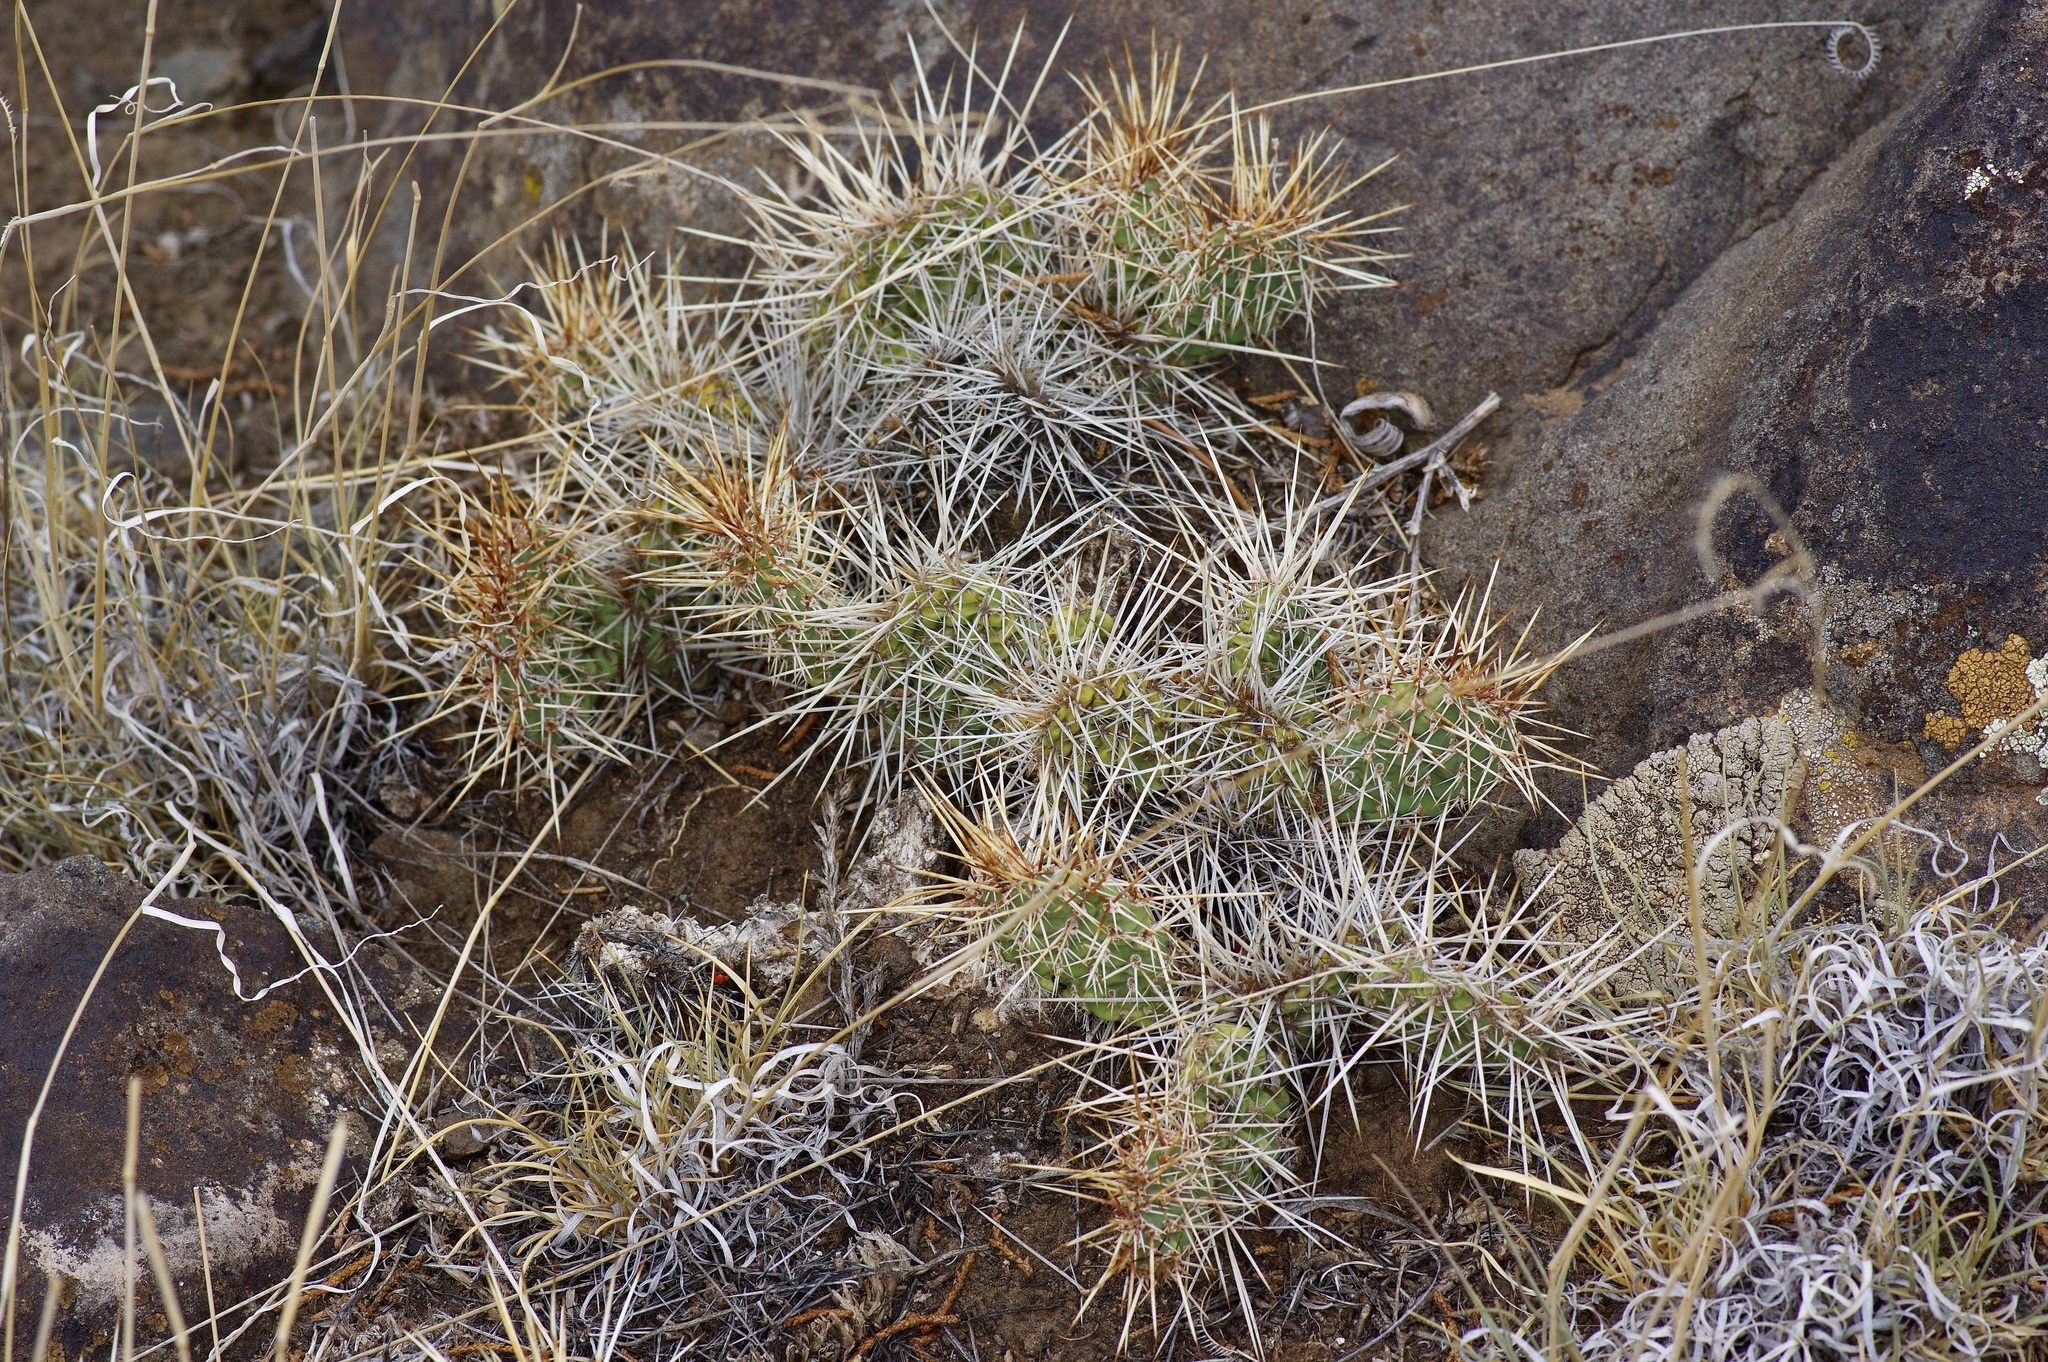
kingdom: Plantae
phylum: Tracheophyta
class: Magnoliopsida
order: Caryophyllales
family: Cactaceae
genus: Opuntia
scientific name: Opuntia polyacantha
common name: Plains prickly-pear
